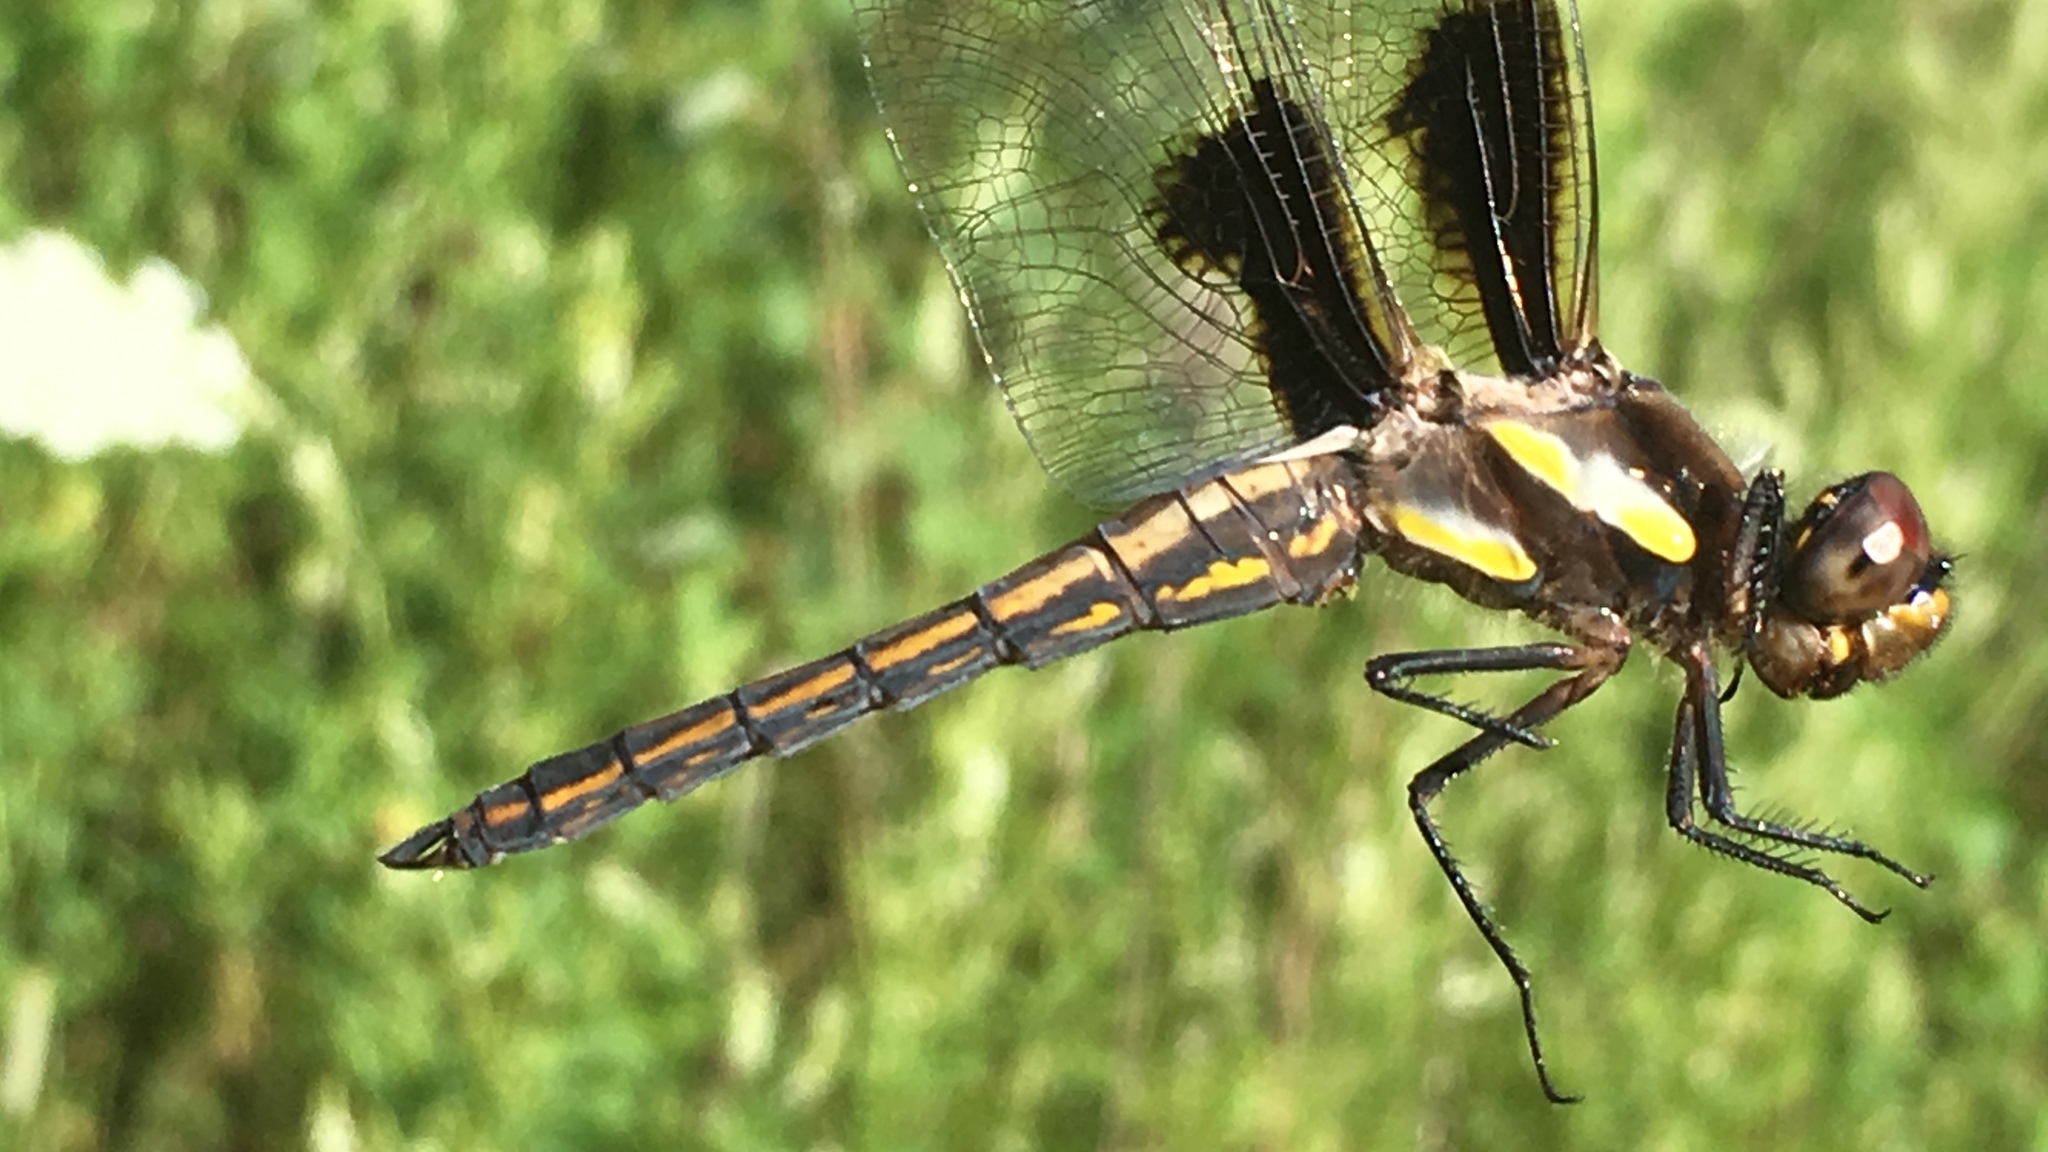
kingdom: Animalia
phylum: Arthropoda
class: Insecta
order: Odonata
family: Libellulidae
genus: Libellula
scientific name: Libellula pulchella
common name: Twelve-spotted skimmer
